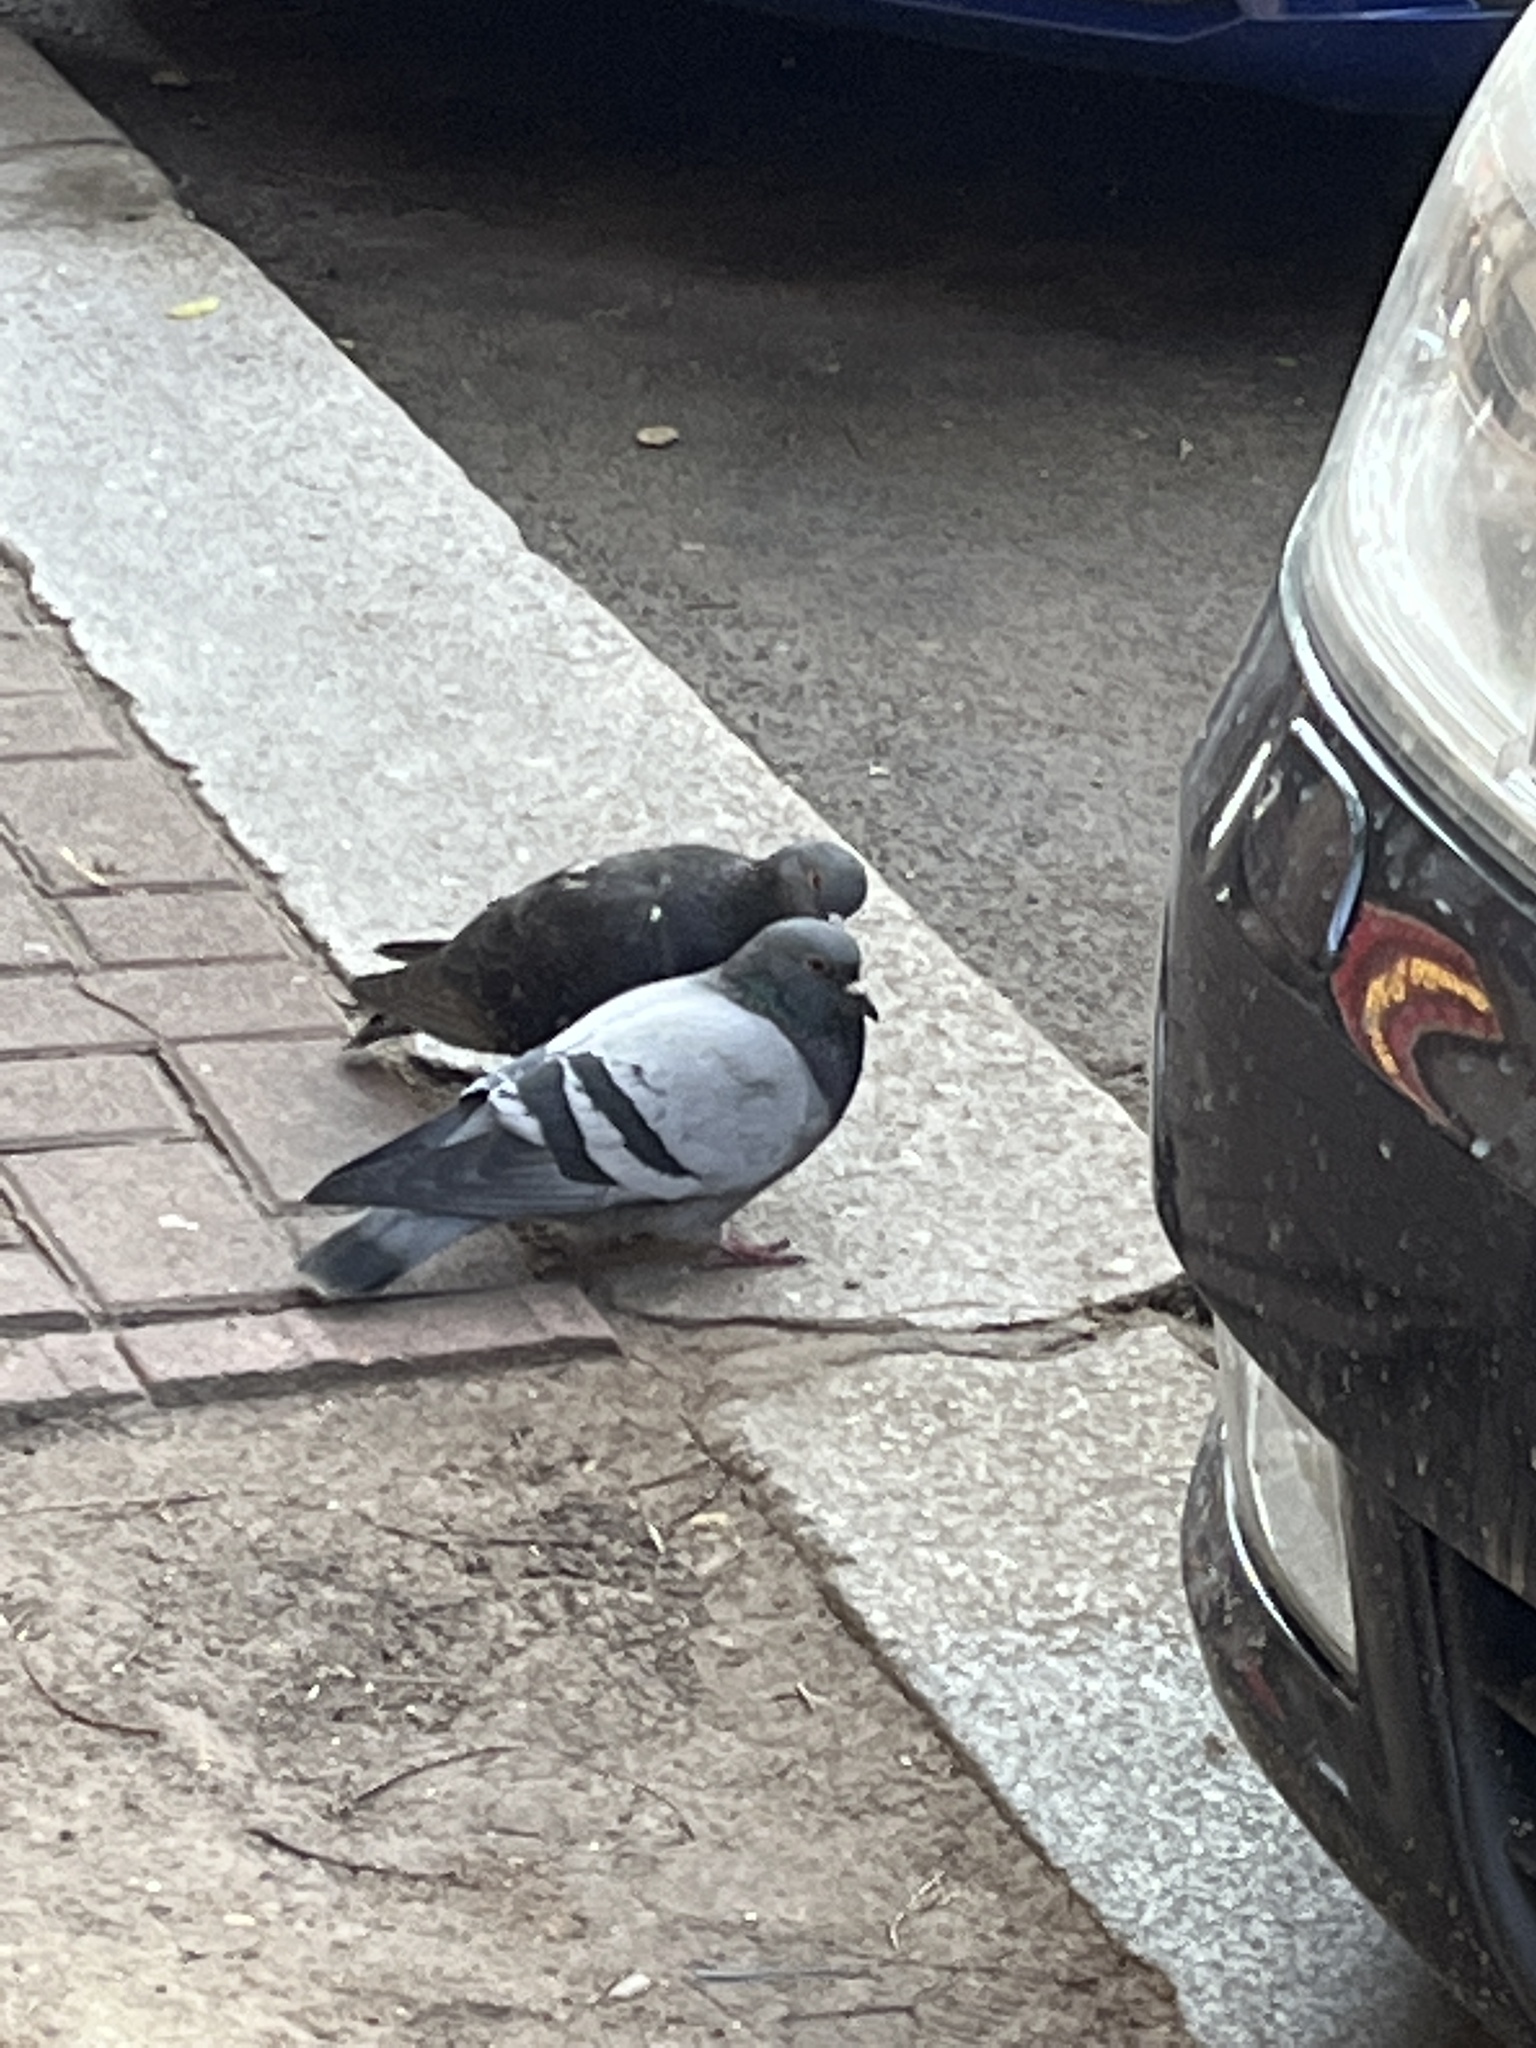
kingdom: Animalia
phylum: Chordata
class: Aves
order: Columbiformes
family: Columbidae
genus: Columba
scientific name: Columba livia
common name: Rock pigeon
